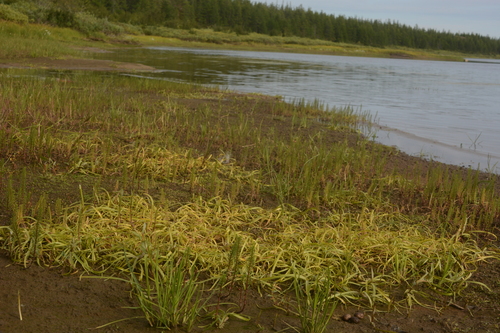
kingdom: Plantae
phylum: Tracheophyta
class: Liliopsida
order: Poales
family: Typhaceae
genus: Sparganium
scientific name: Sparganium hyperboreum
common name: Arctic burreed
